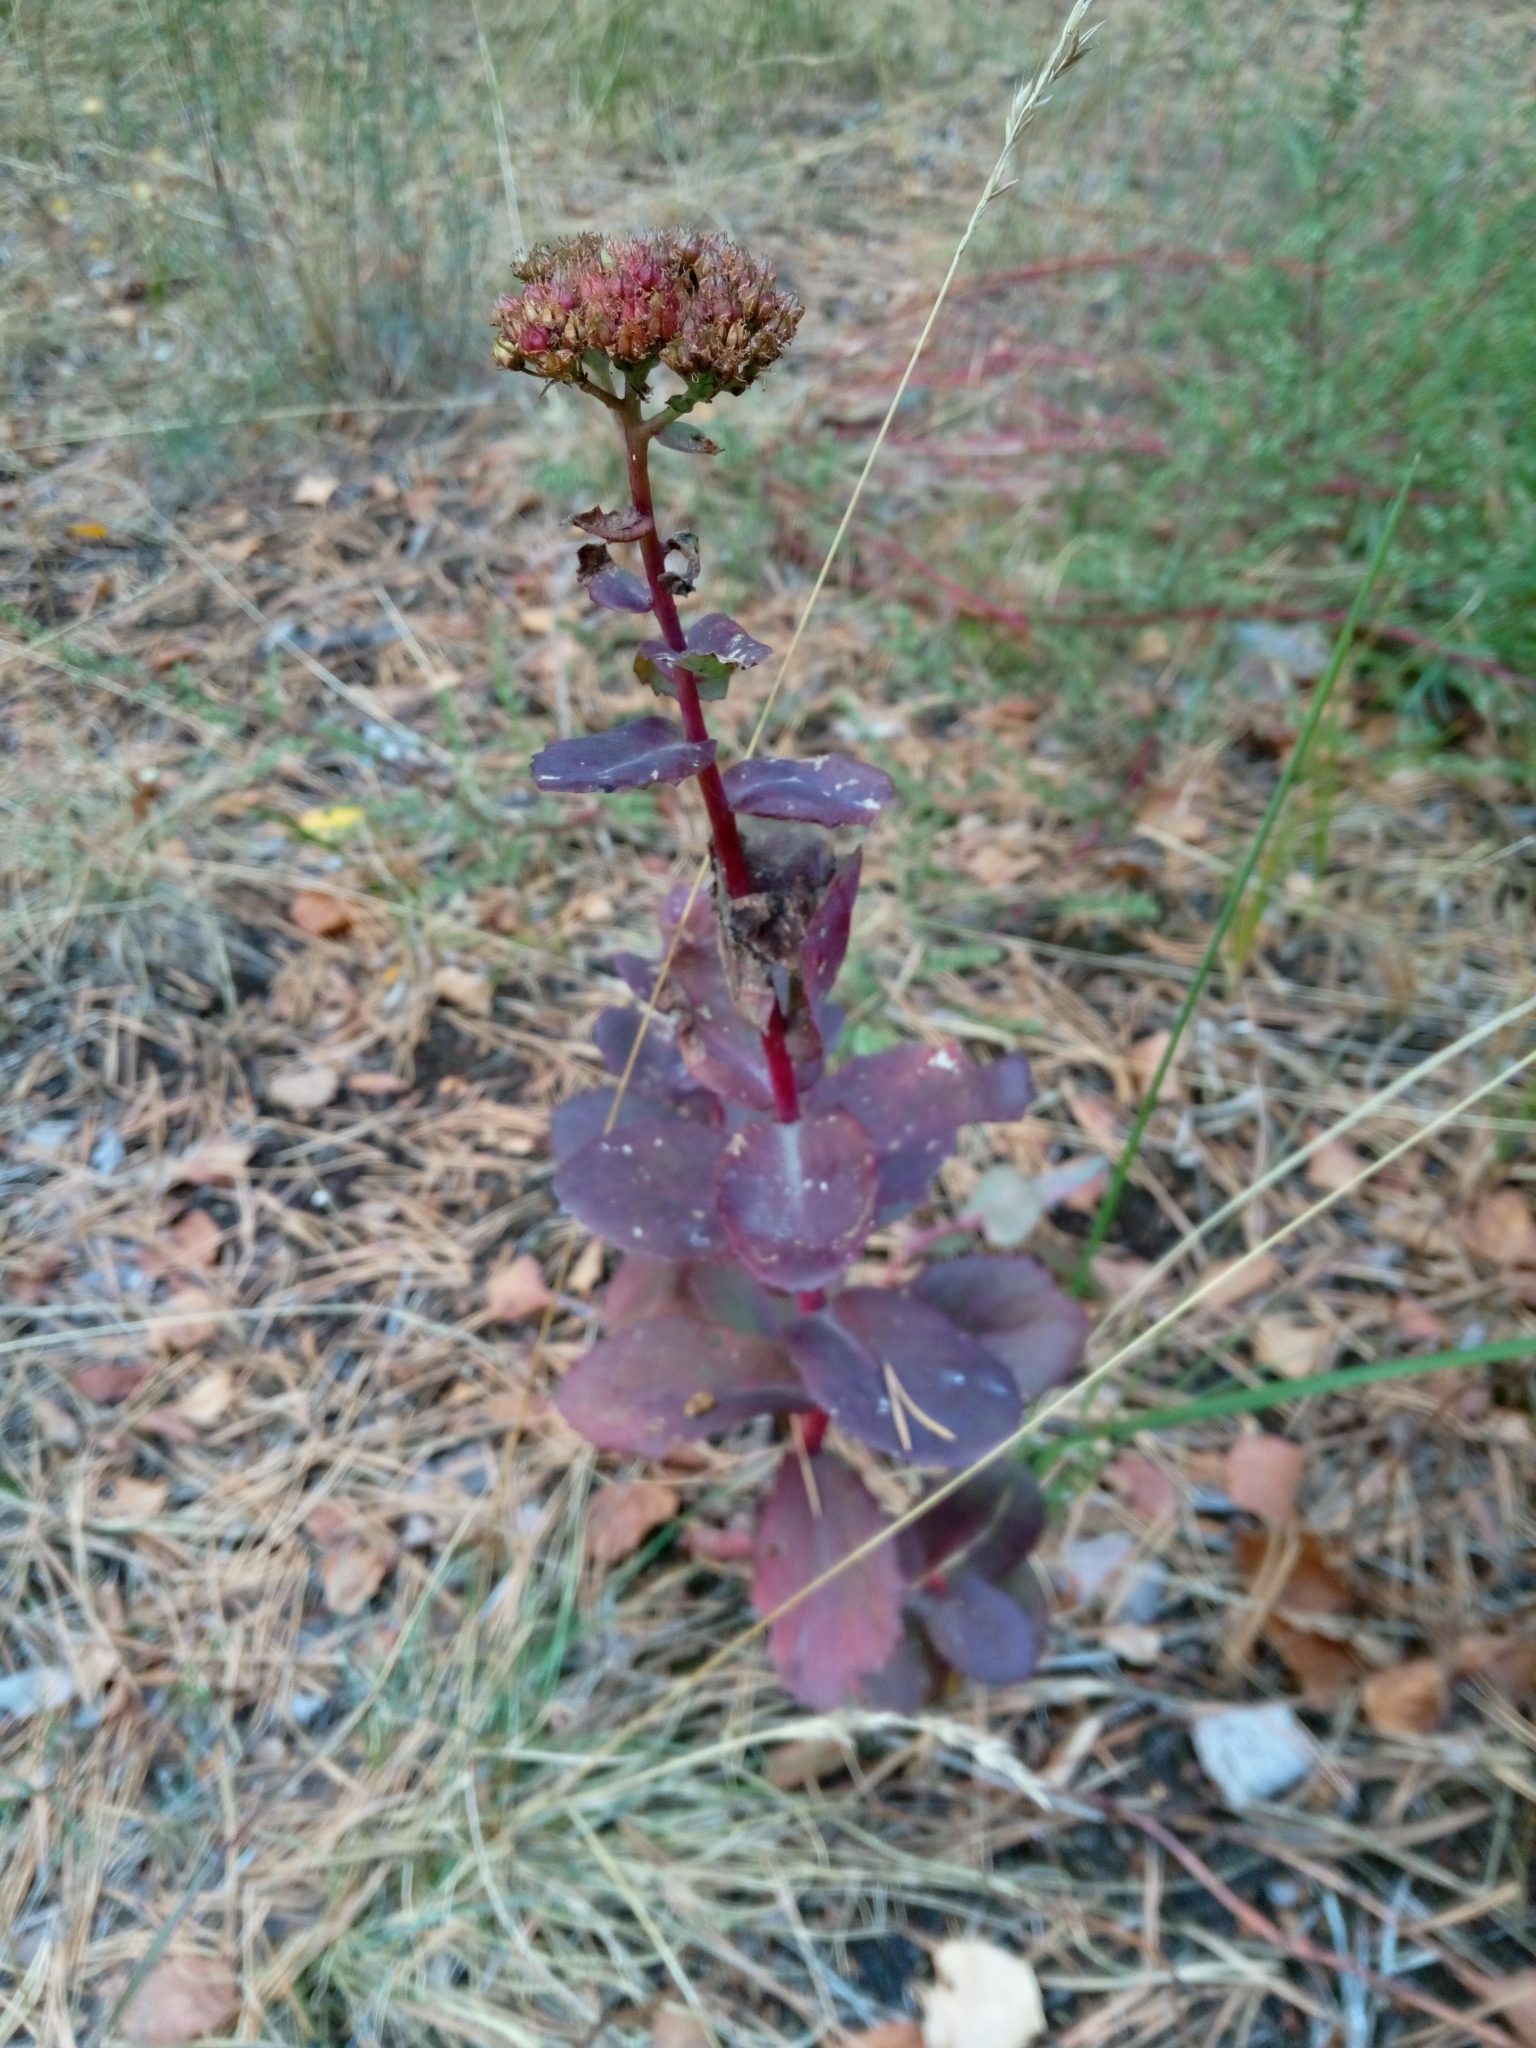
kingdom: Plantae
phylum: Tracheophyta
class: Magnoliopsida
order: Saxifragales
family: Crassulaceae
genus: Hylotelephium
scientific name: Hylotelephium maximum
